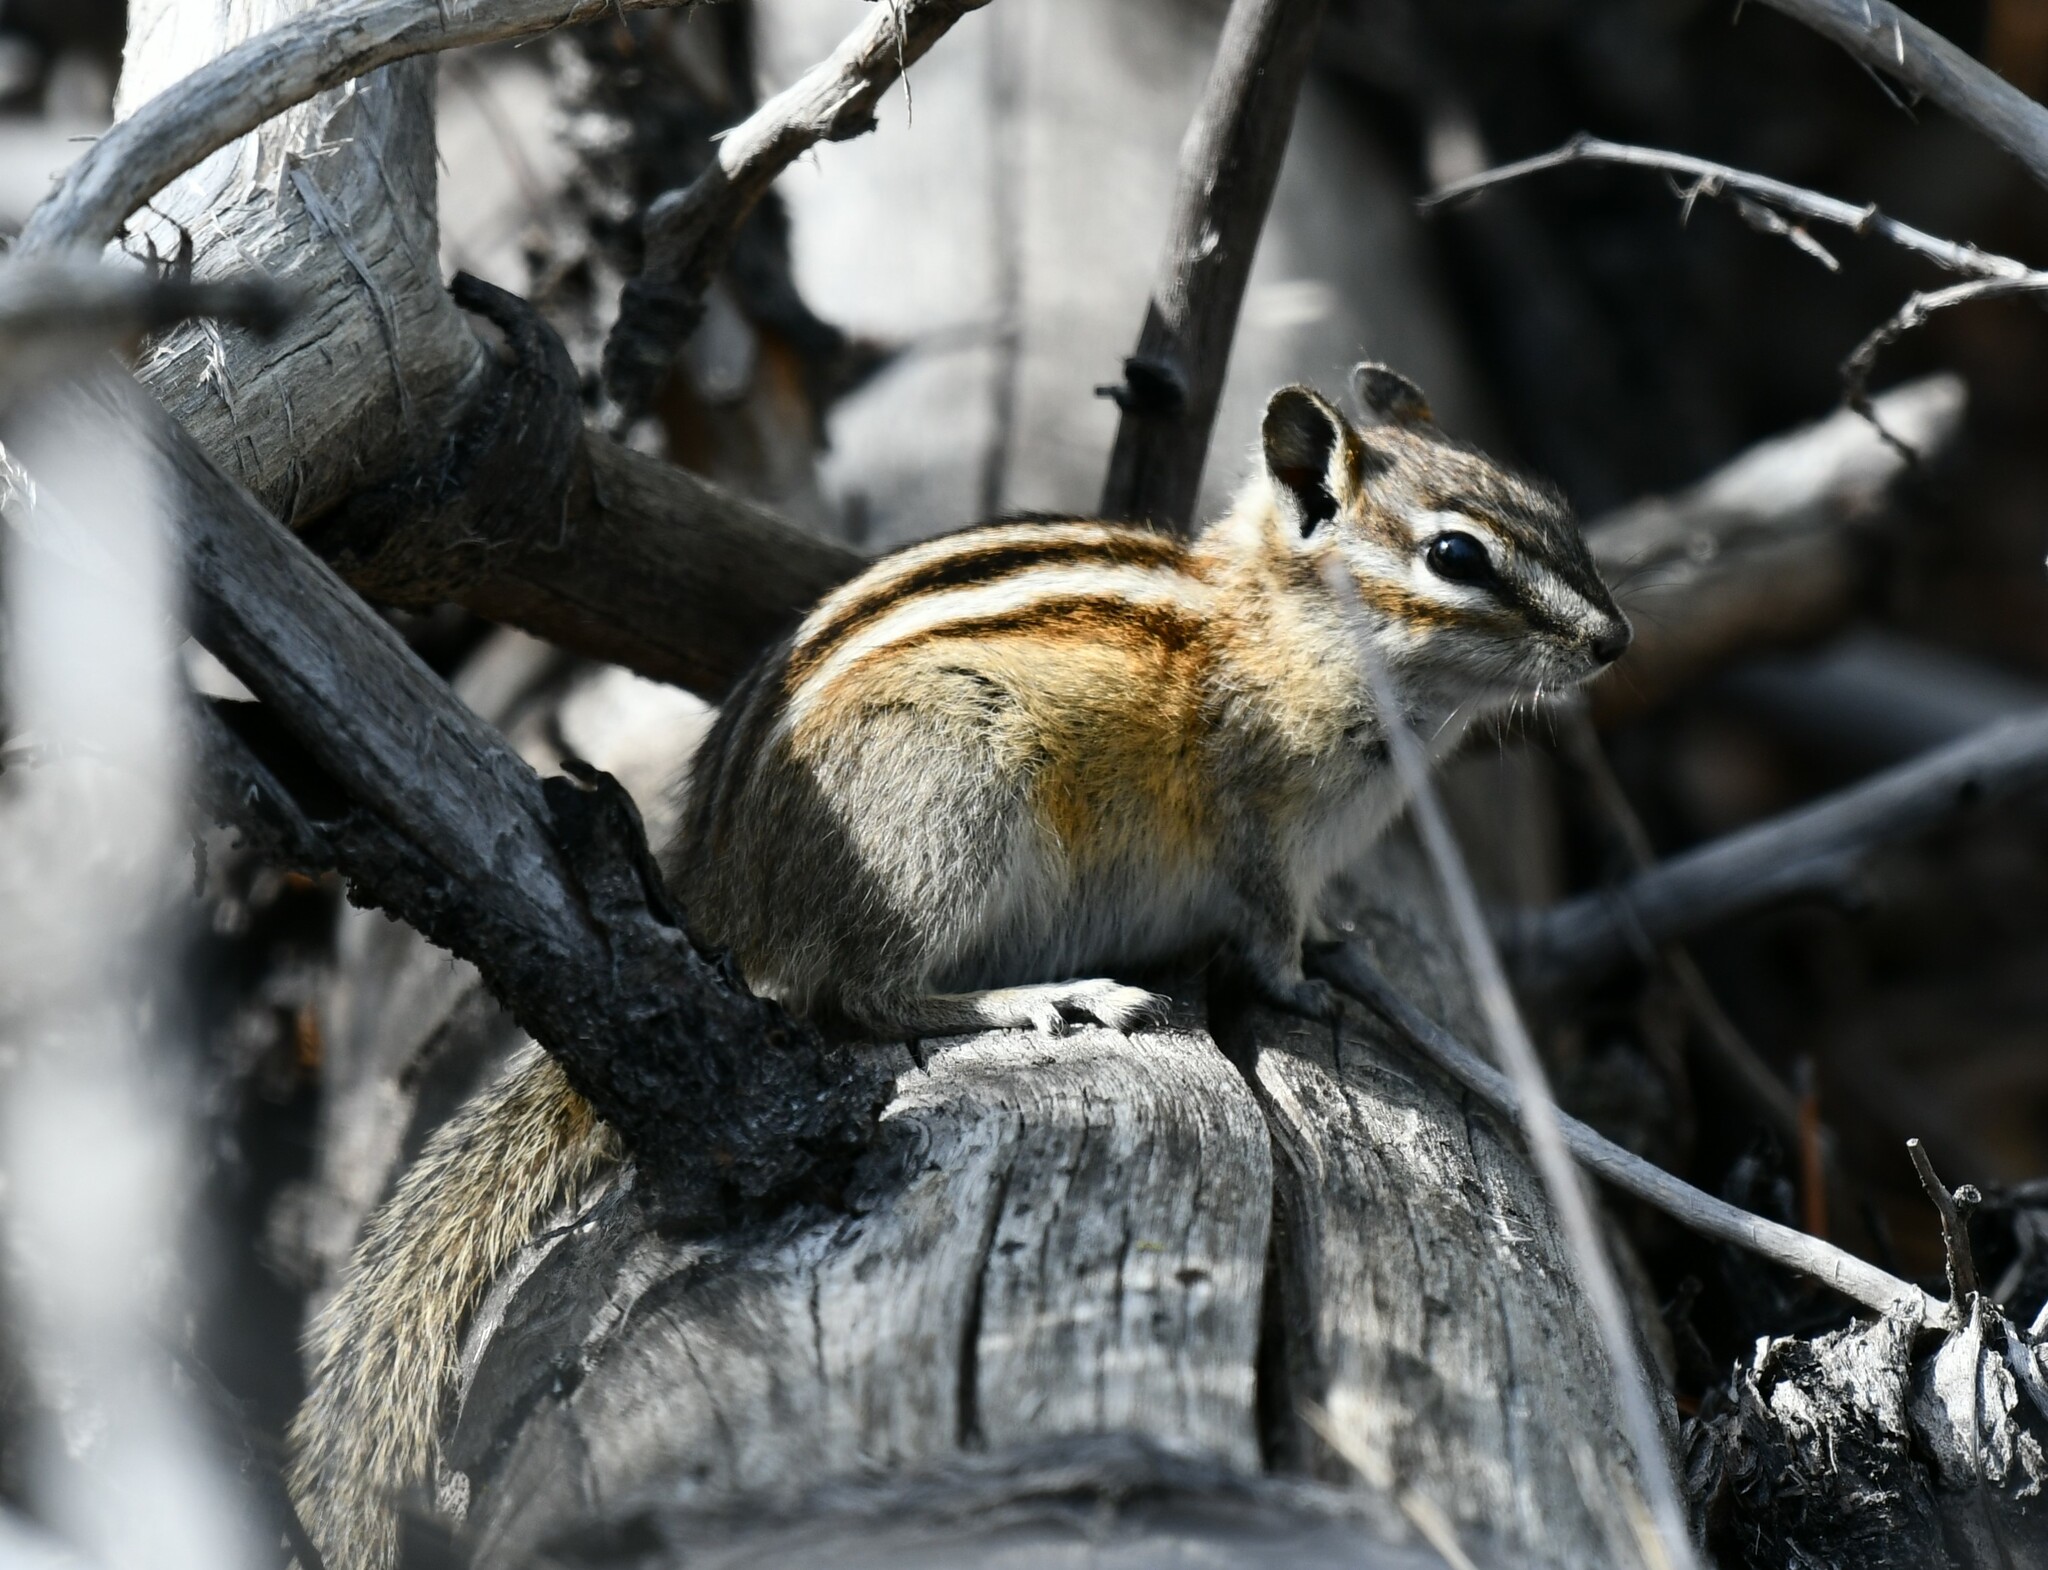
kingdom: Animalia
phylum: Chordata
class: Mammalia
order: Rodentia
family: Sciuridae
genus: Tamias
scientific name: Tamias minimus
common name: Least chipmunk
